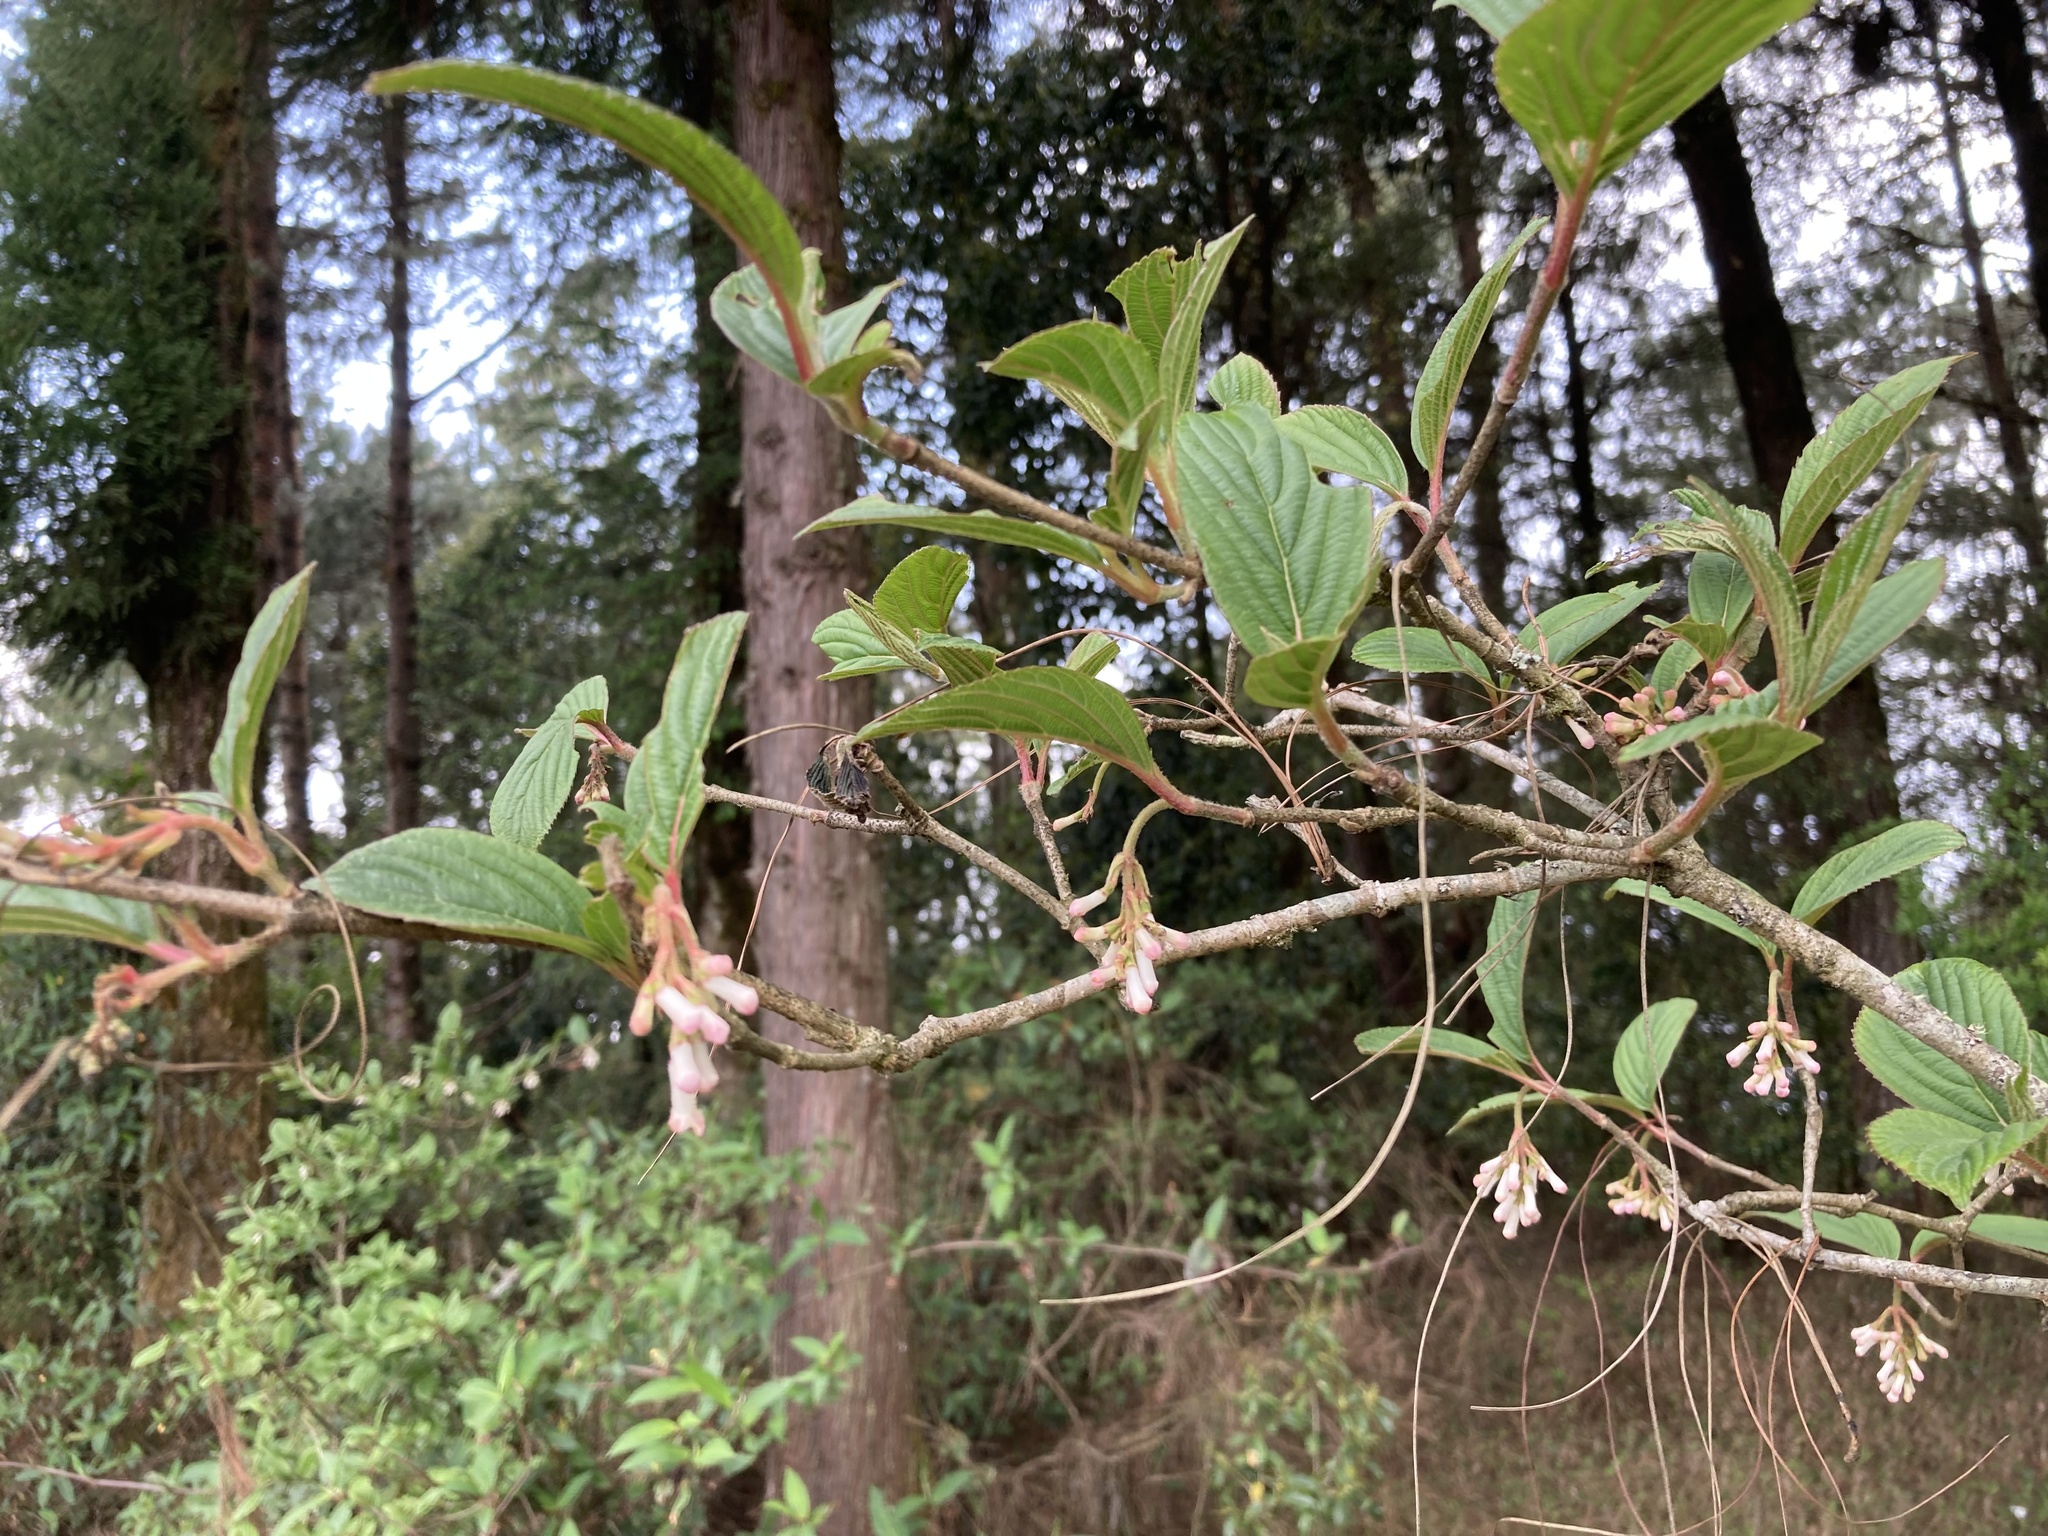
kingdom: Plantae
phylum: Tracheophyta
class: Magnoliopsida
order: Dipsacales
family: Viburnaceae
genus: Viburnum
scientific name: Viburnum erubescens
